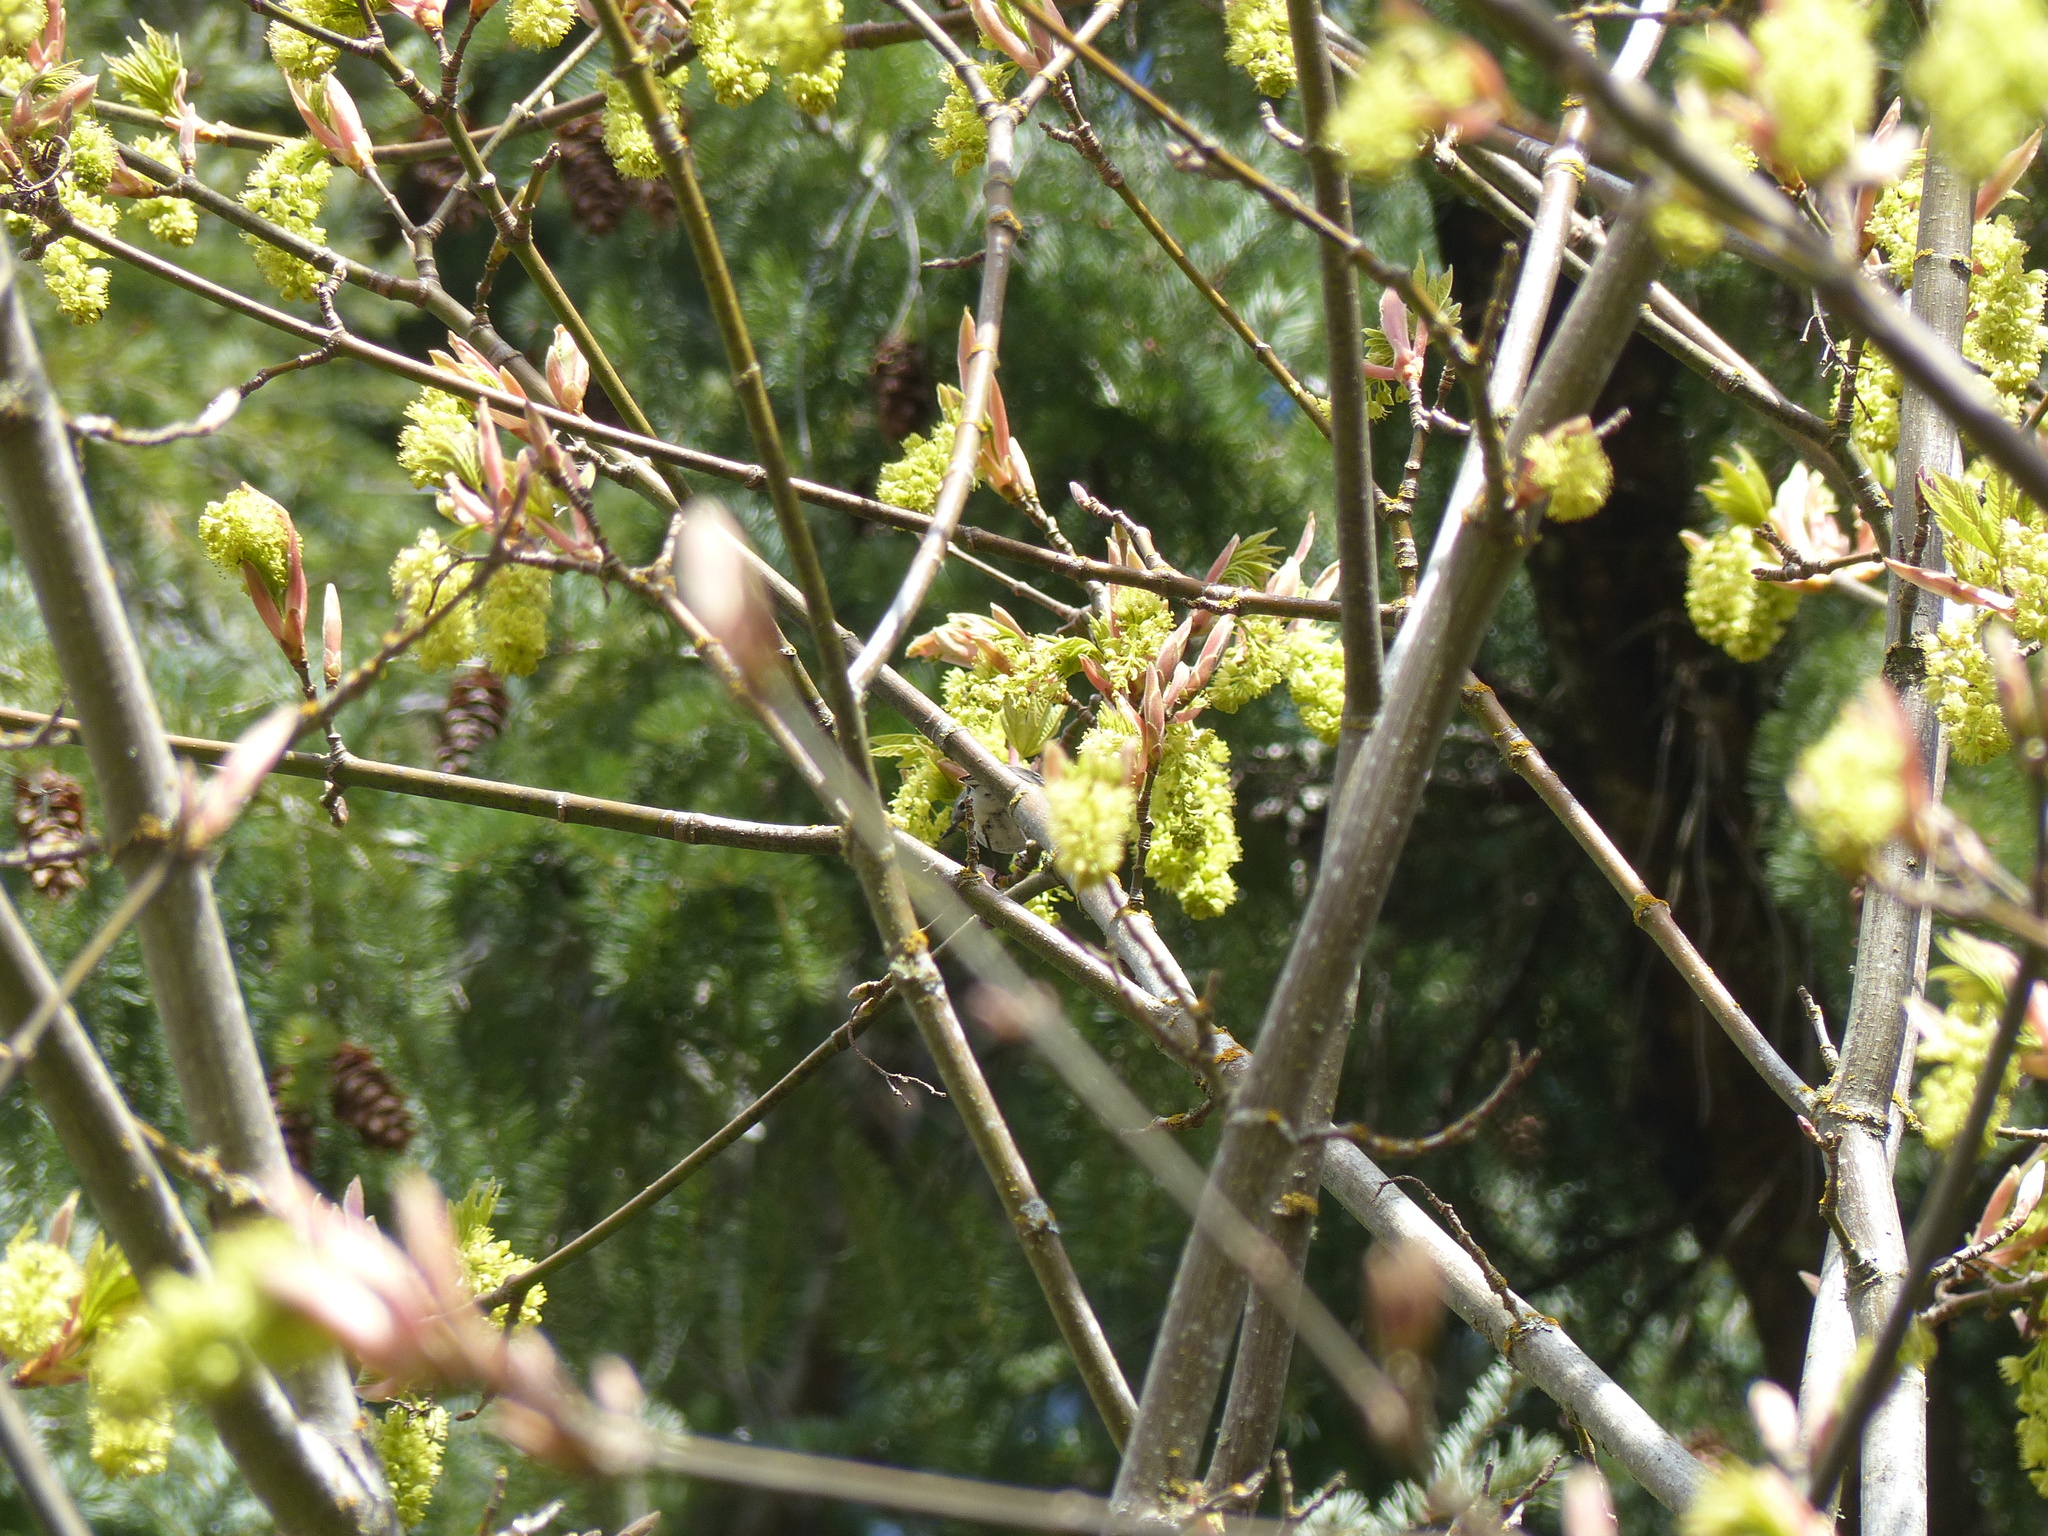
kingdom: Plantae
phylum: Tracheophyta
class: Magnoliopsida
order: Sapindales
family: Sapindaceae
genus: Acer
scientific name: Acer macrophyllum
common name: Oregon maple
